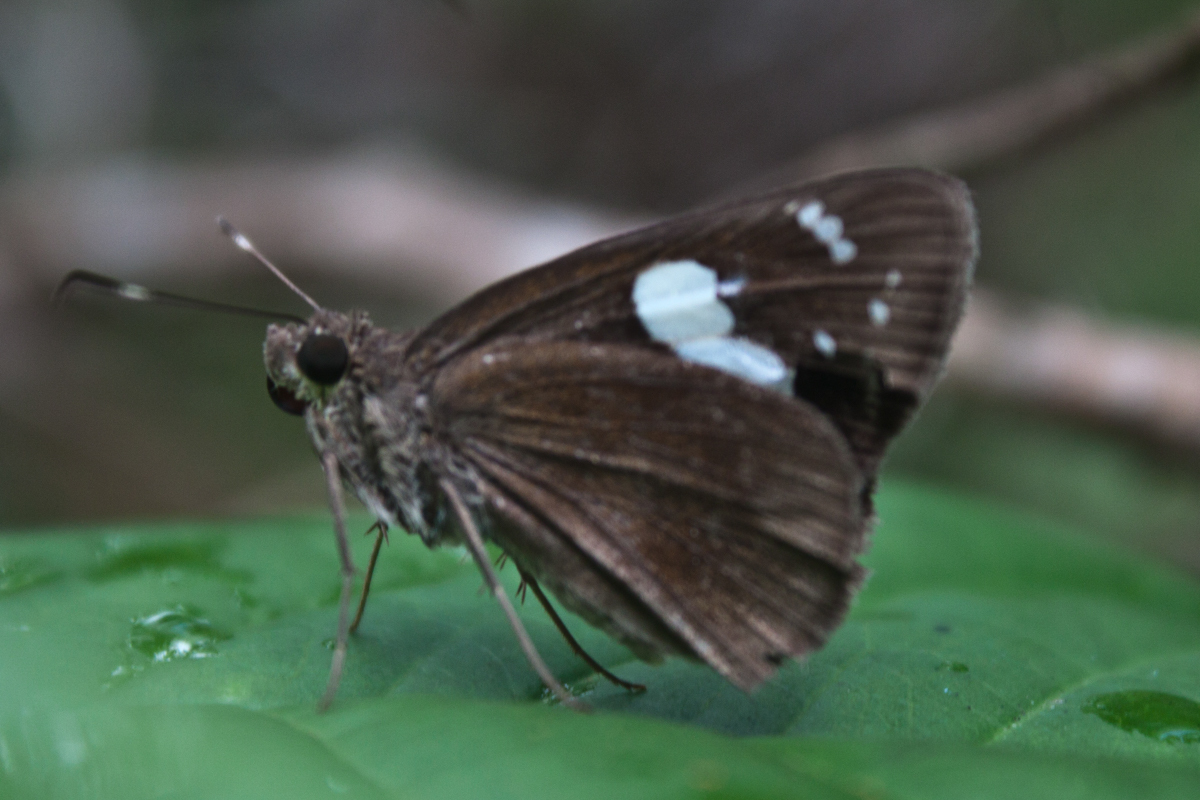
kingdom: Animalia
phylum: Arthropoda
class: Insecta
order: Lepidoptera
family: Hesperiidae
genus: Notocrypta
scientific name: Notocrypta curvifascia
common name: Restricted demon
